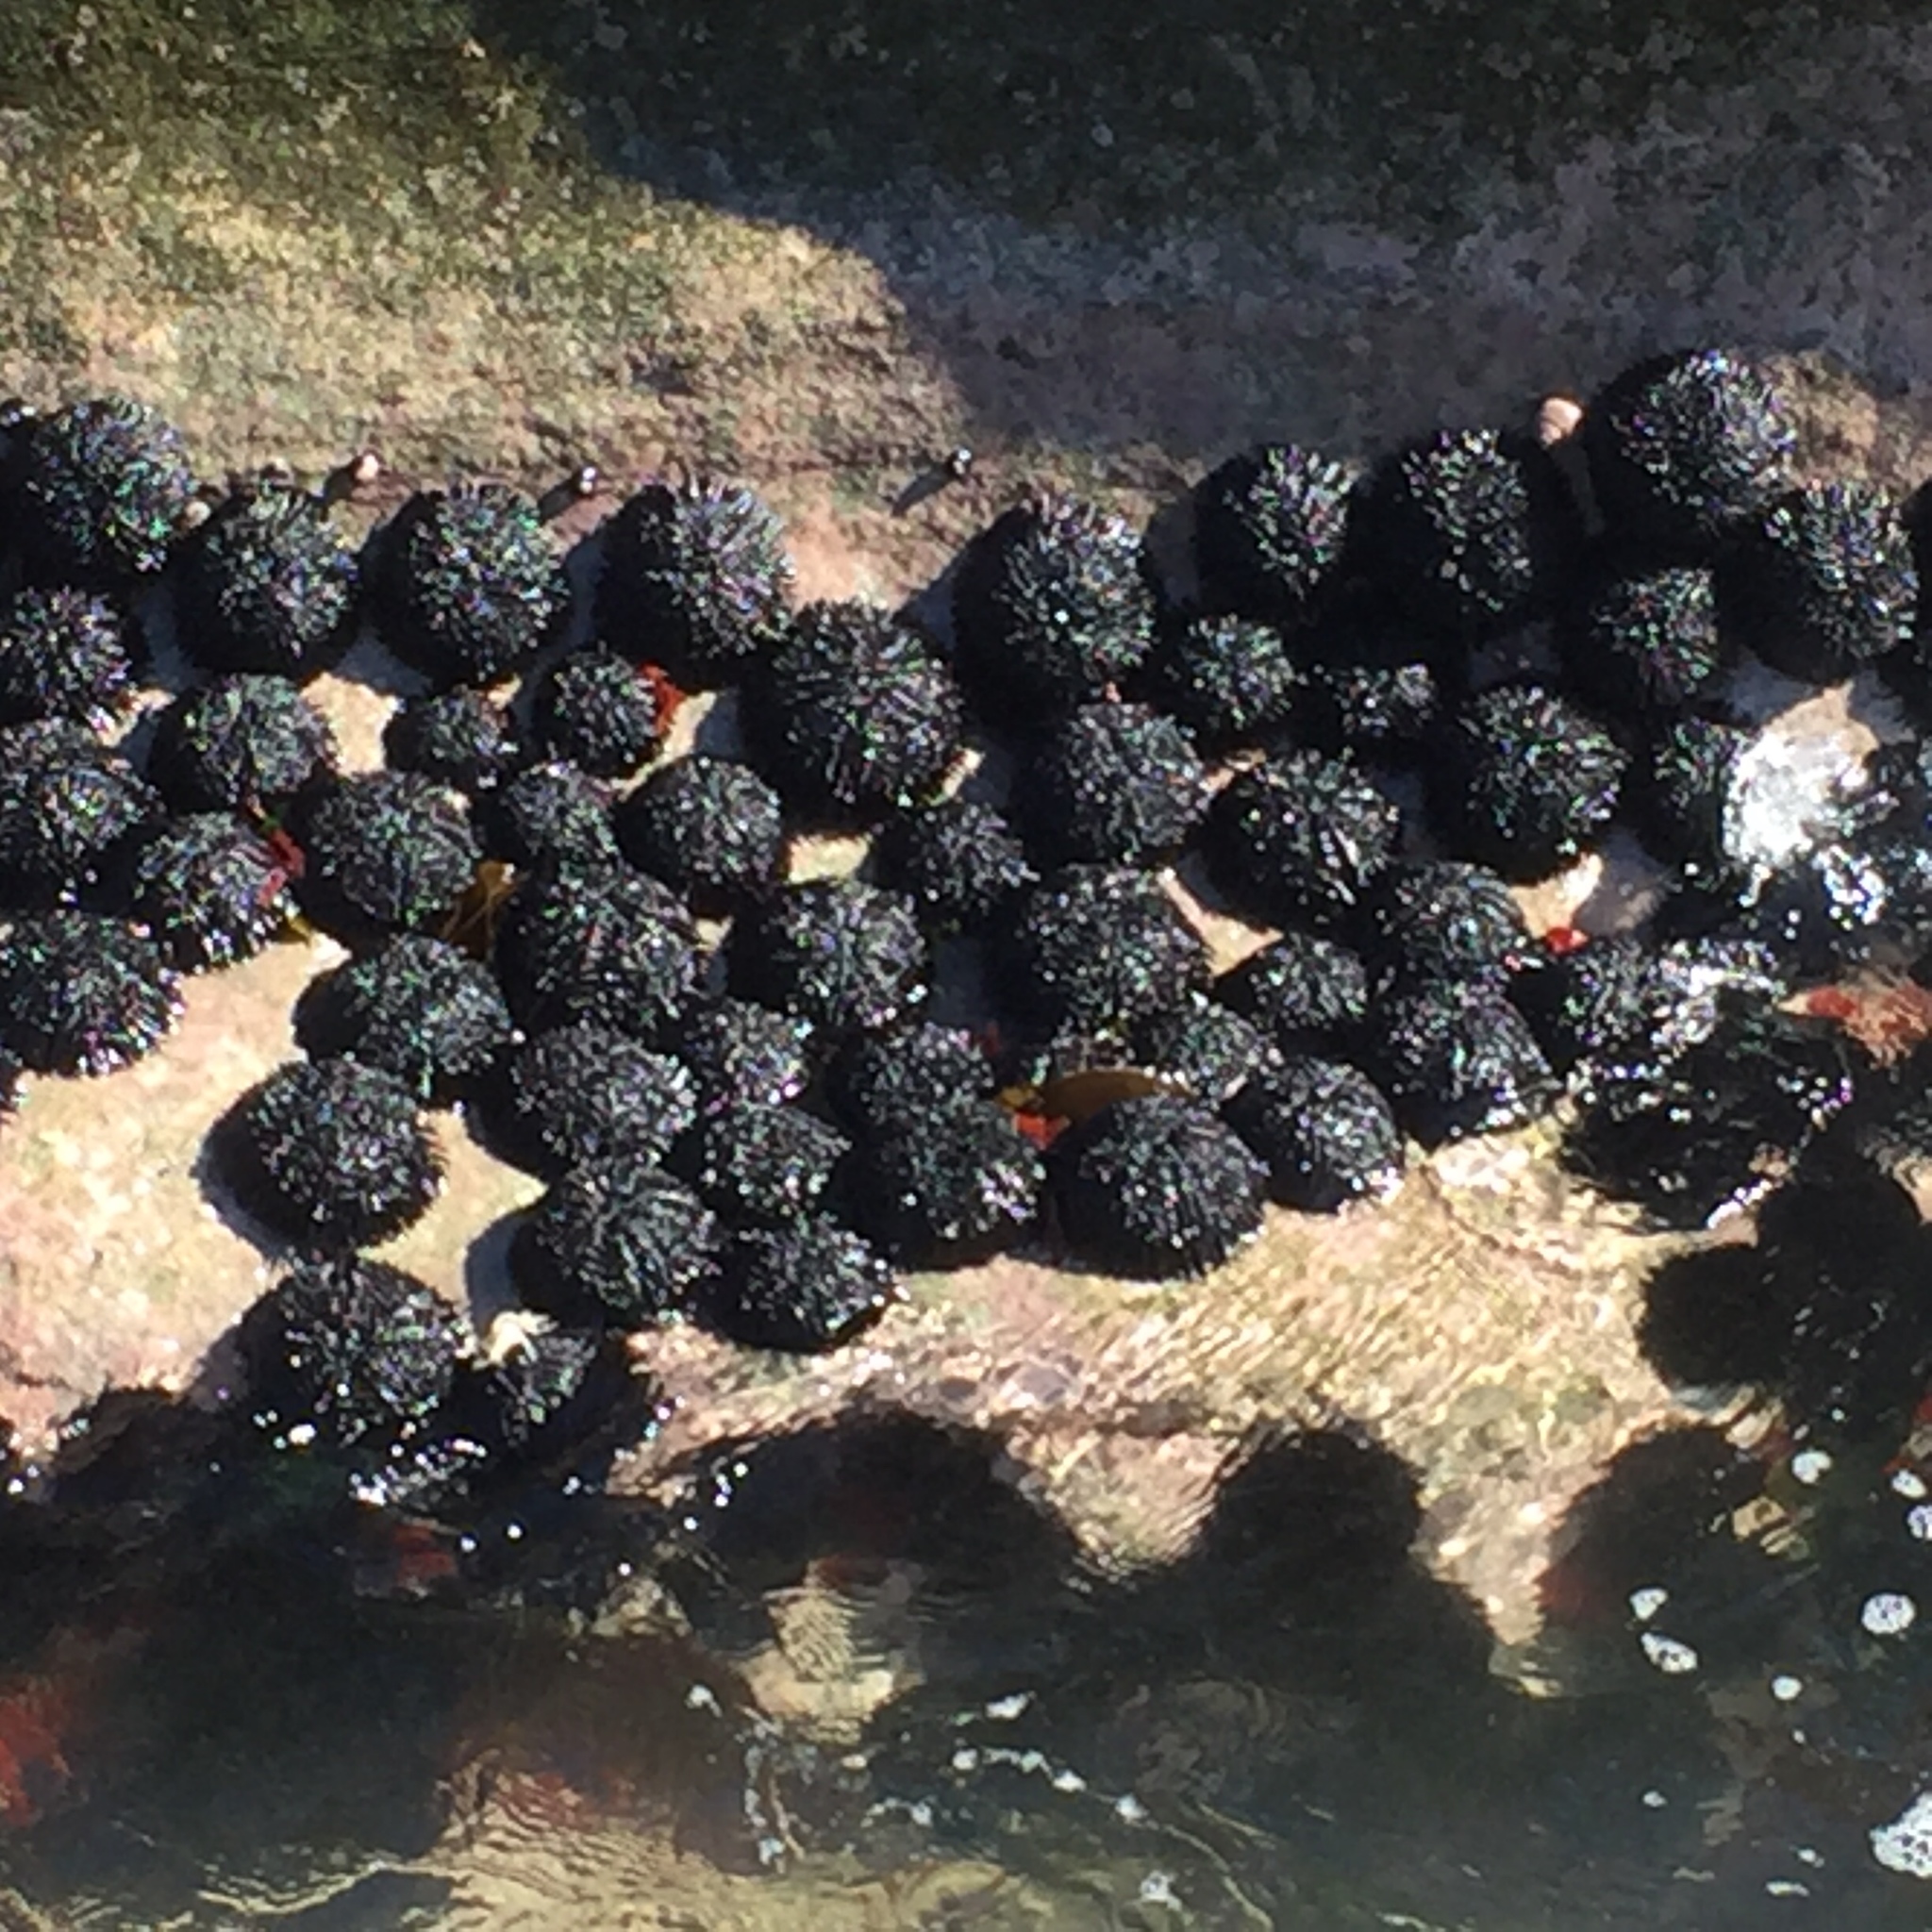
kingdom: Animalia
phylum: Echinodermata
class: Echinoidea
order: Arbacioida
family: Arbaciidae
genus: Tetrapygus
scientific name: Tetrapygus niger
